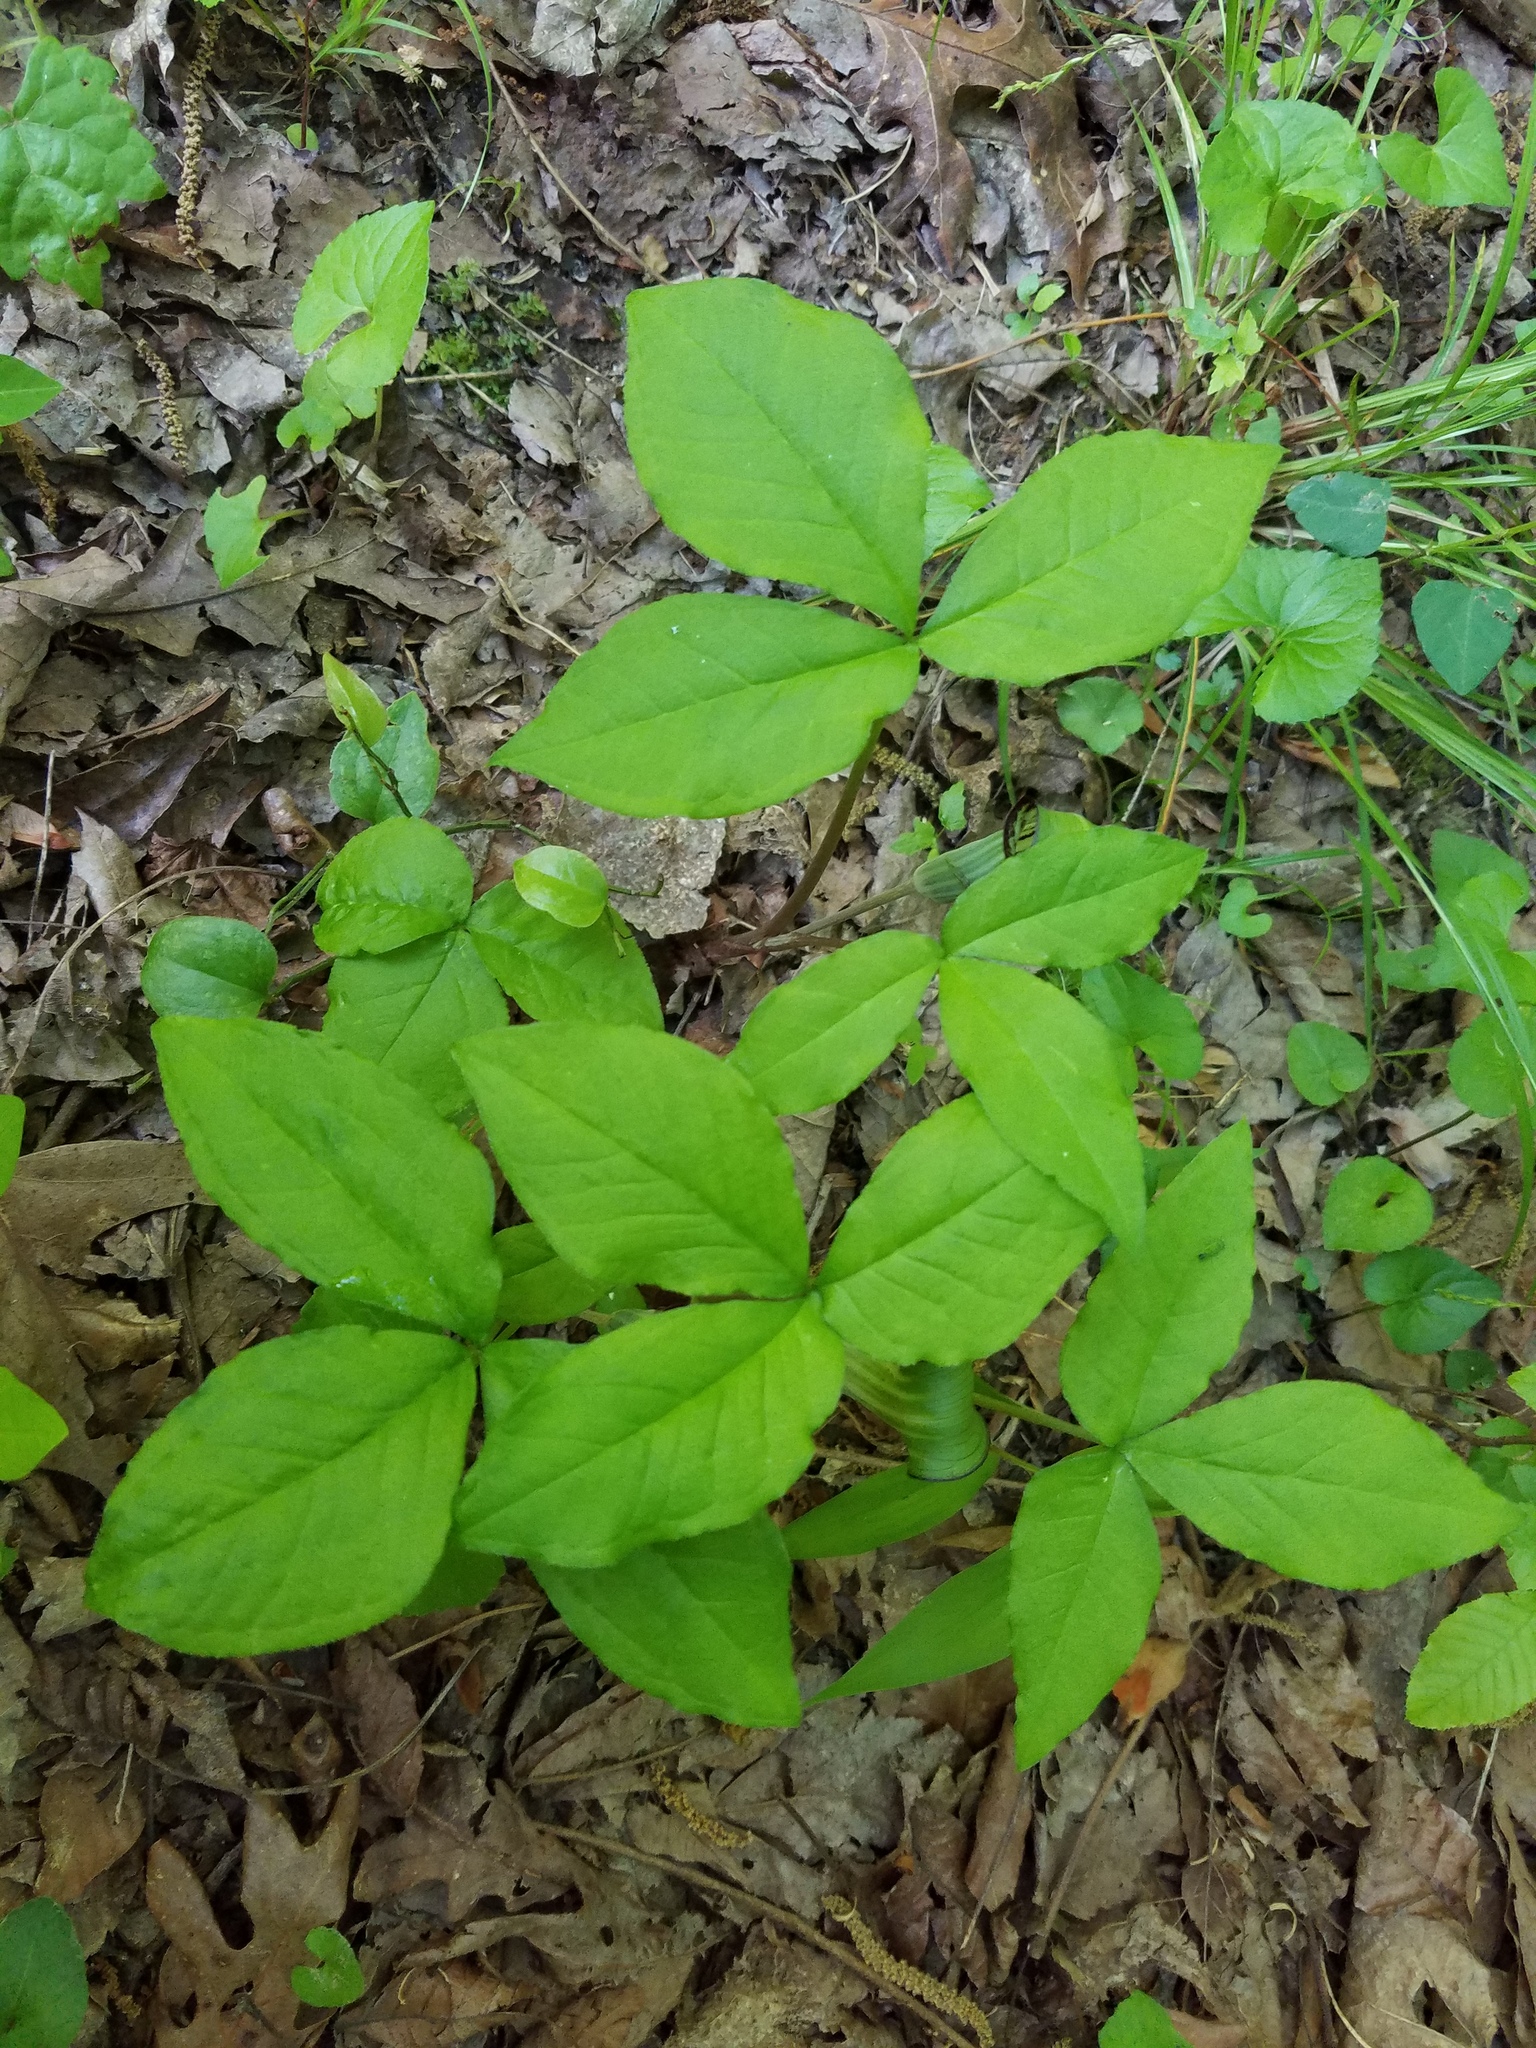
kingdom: Plantae
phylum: Tracheophyta
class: Liliopsida
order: Alismatales
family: Araceae
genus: Arisaema
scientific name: Arisaema triphyllum
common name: Jack-in-the-pulpit
